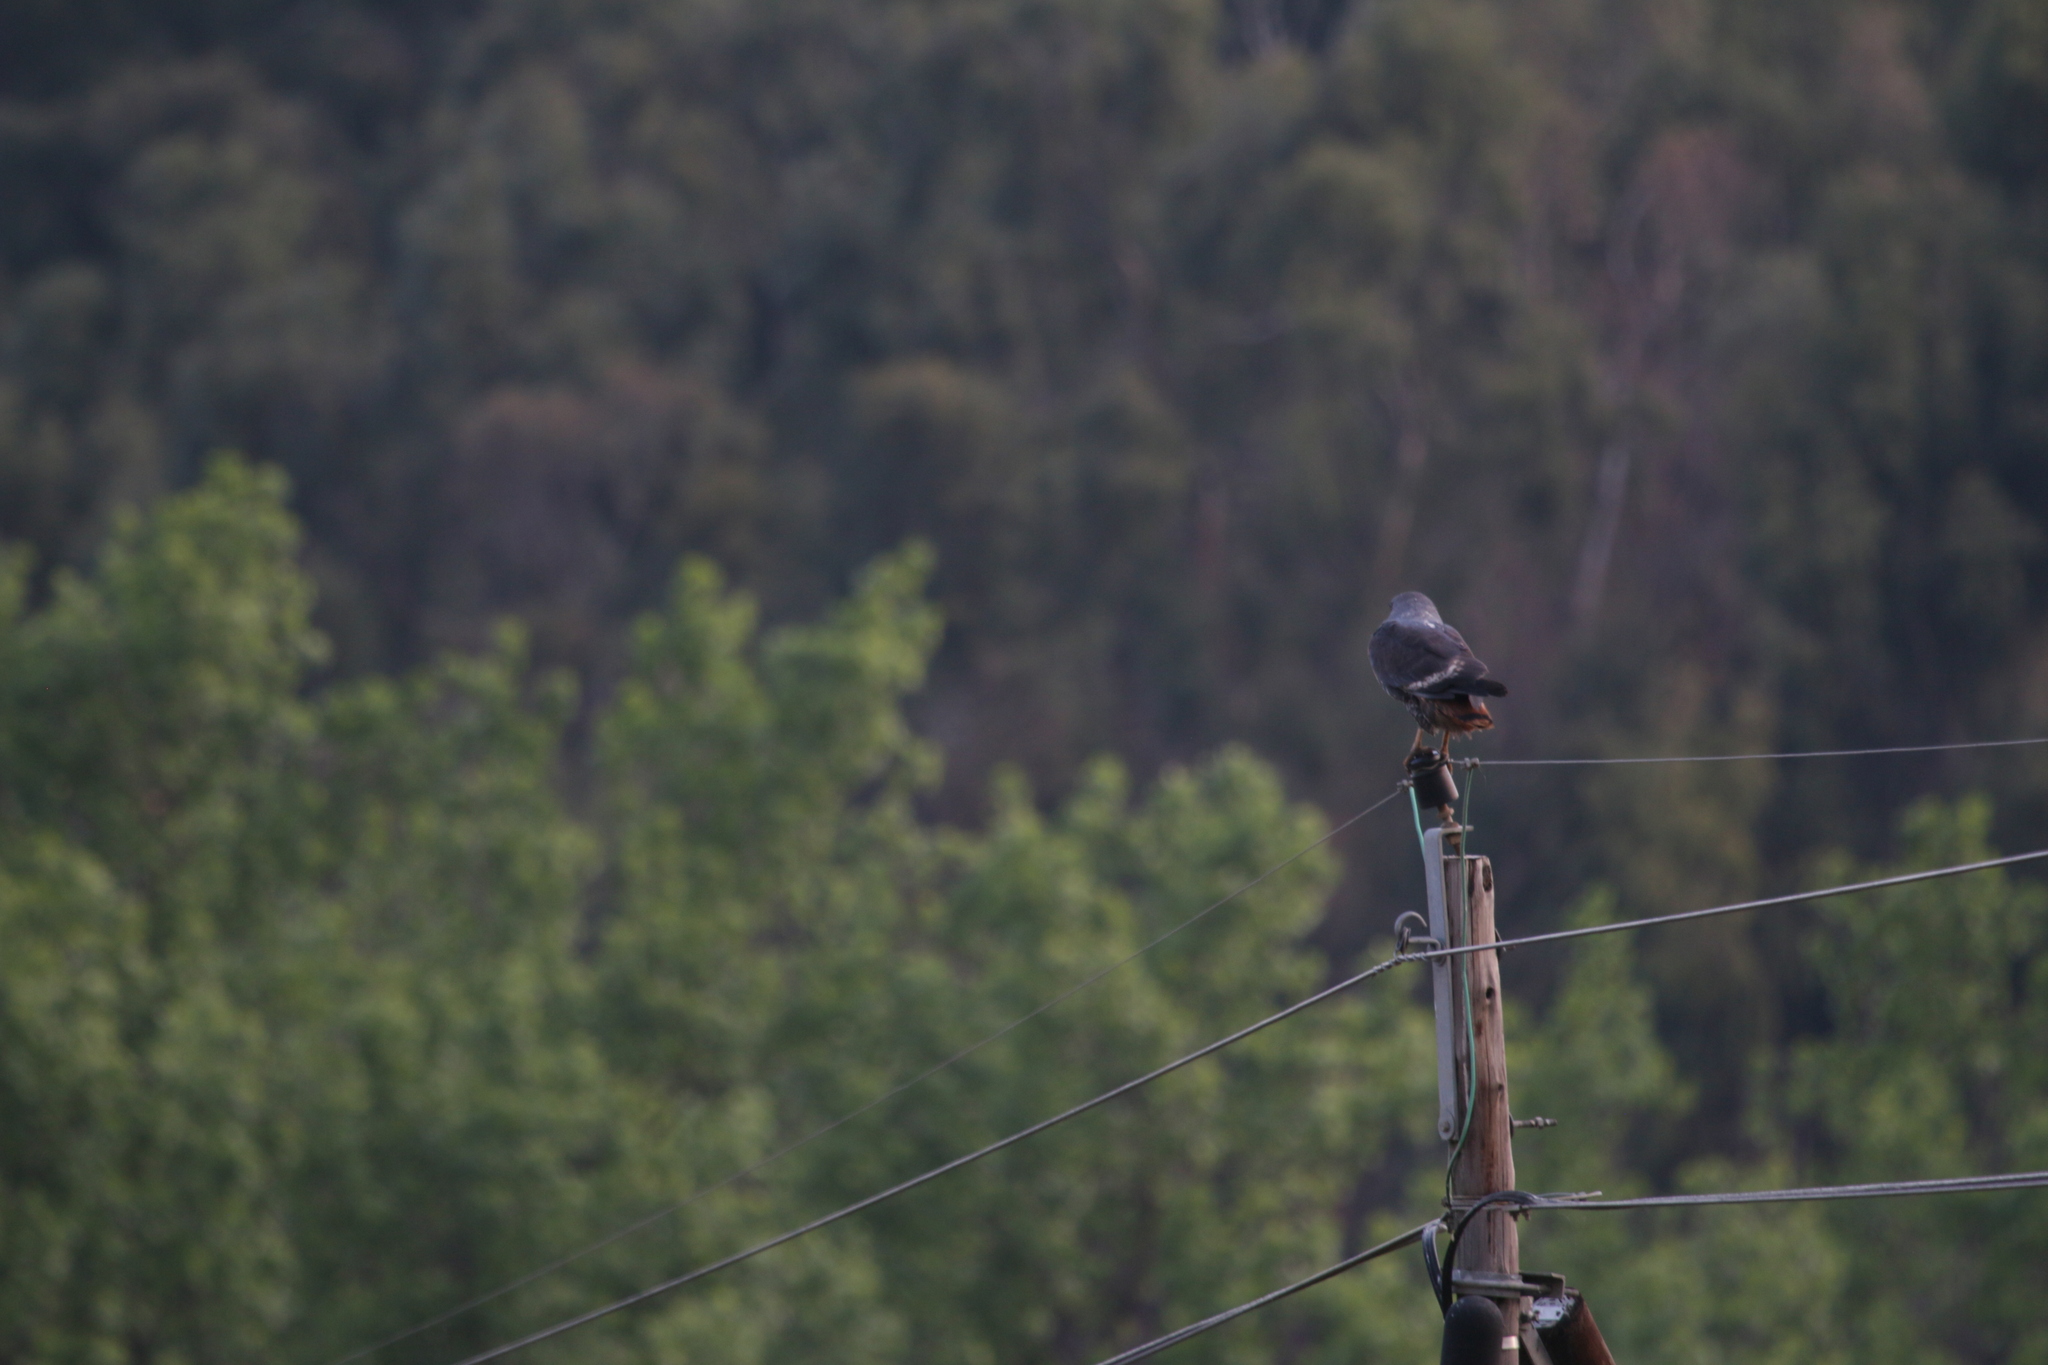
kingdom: Animalia
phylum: Chordata
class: Aves
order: Accipitriformes
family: Accipitridae
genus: Buteo
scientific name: Buteo rufofuscus
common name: Jackal buzzard
